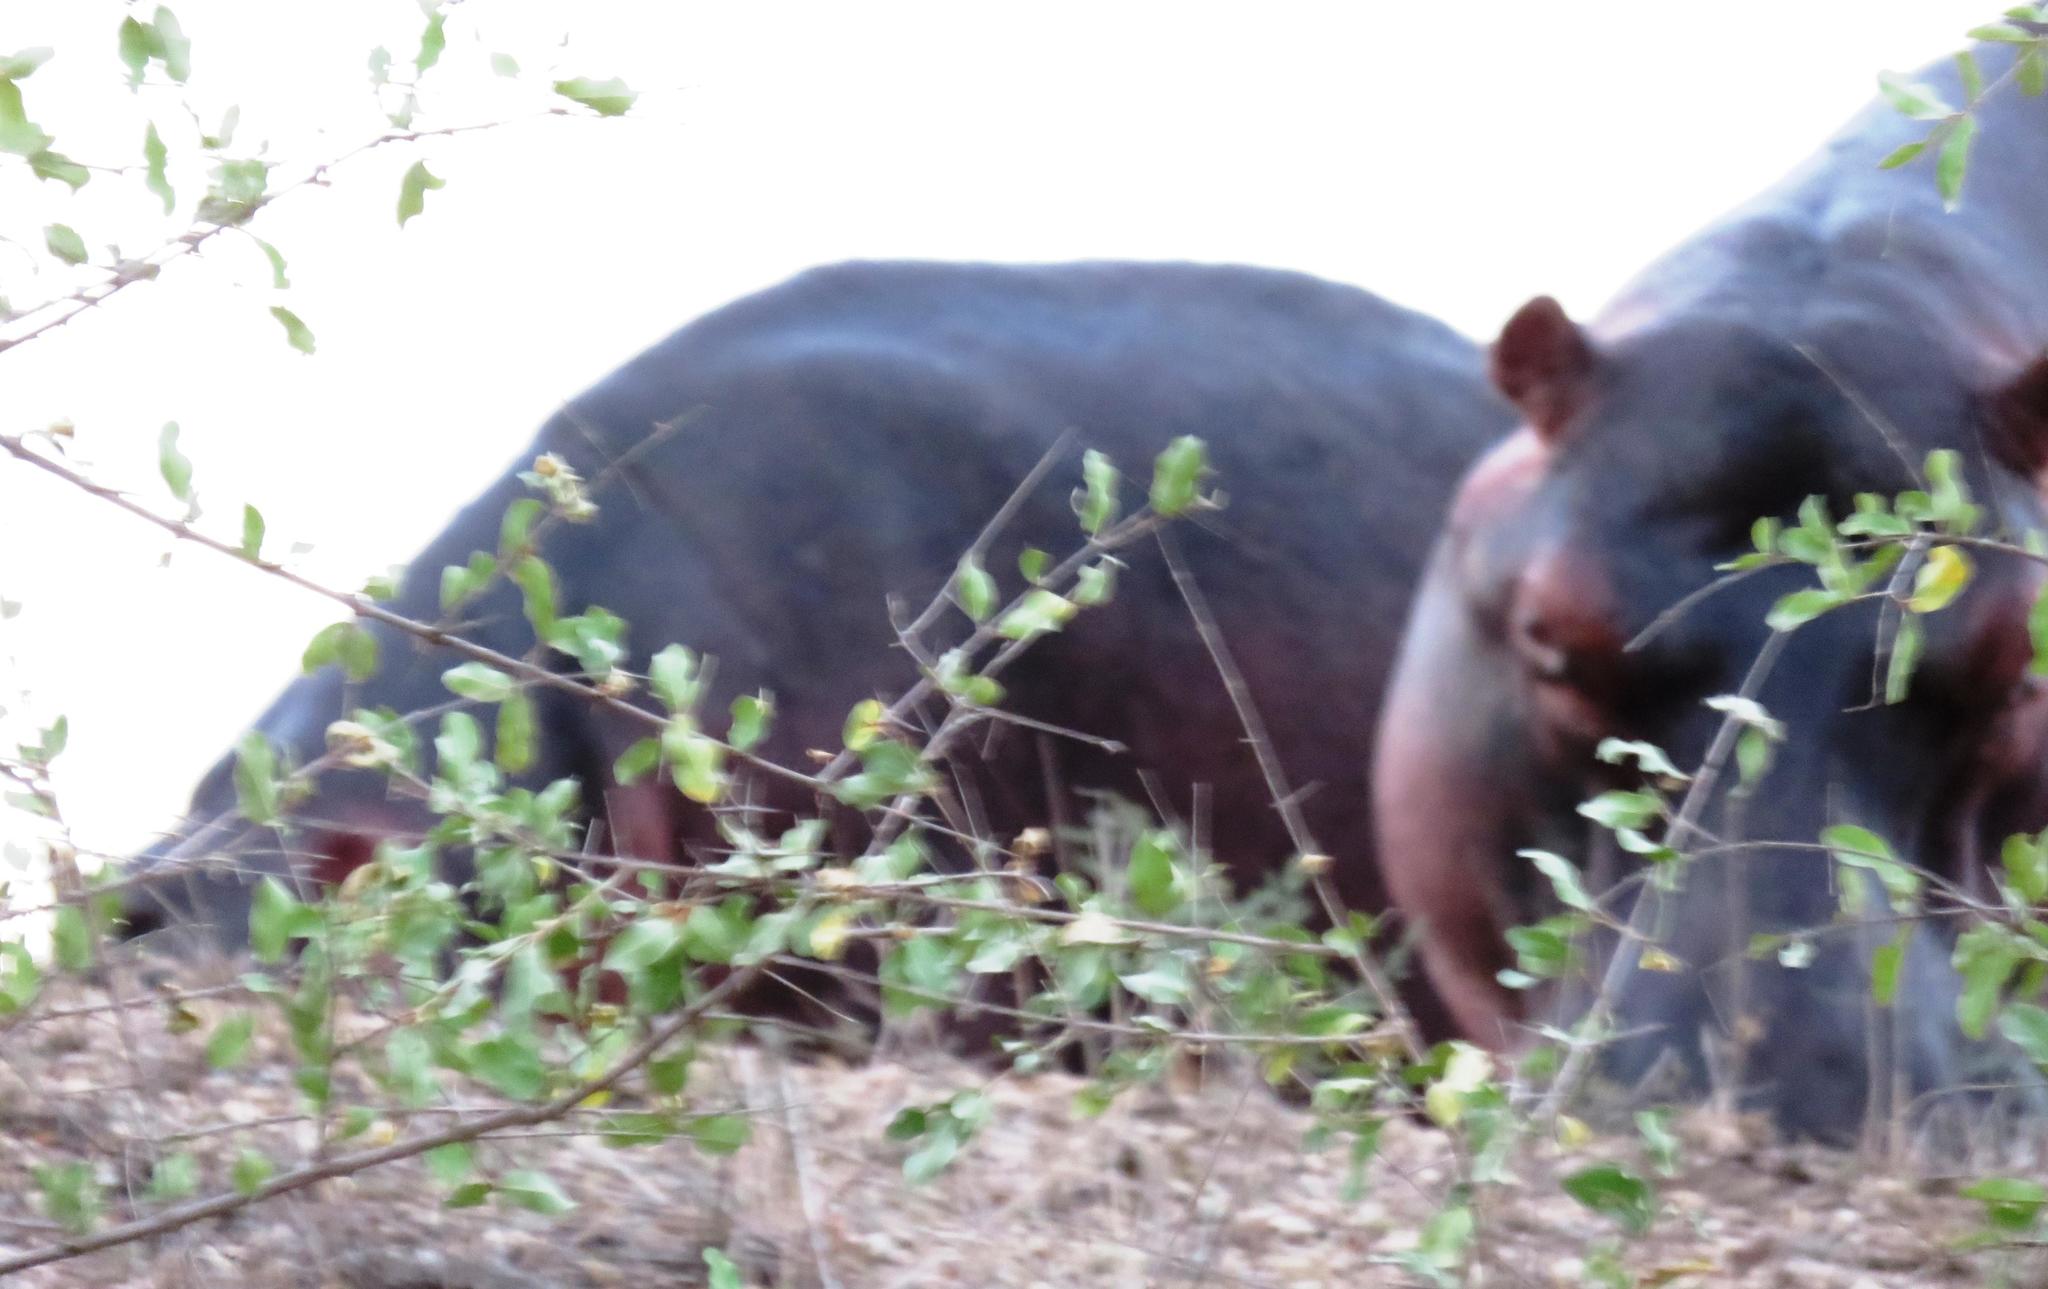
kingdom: Animalia
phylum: Chordata
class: Mammalia
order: Artiodactyla
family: Hippopotamidae
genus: Hippopotamus
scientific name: Hippopotamus amphibius
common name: Common hippopotamus
